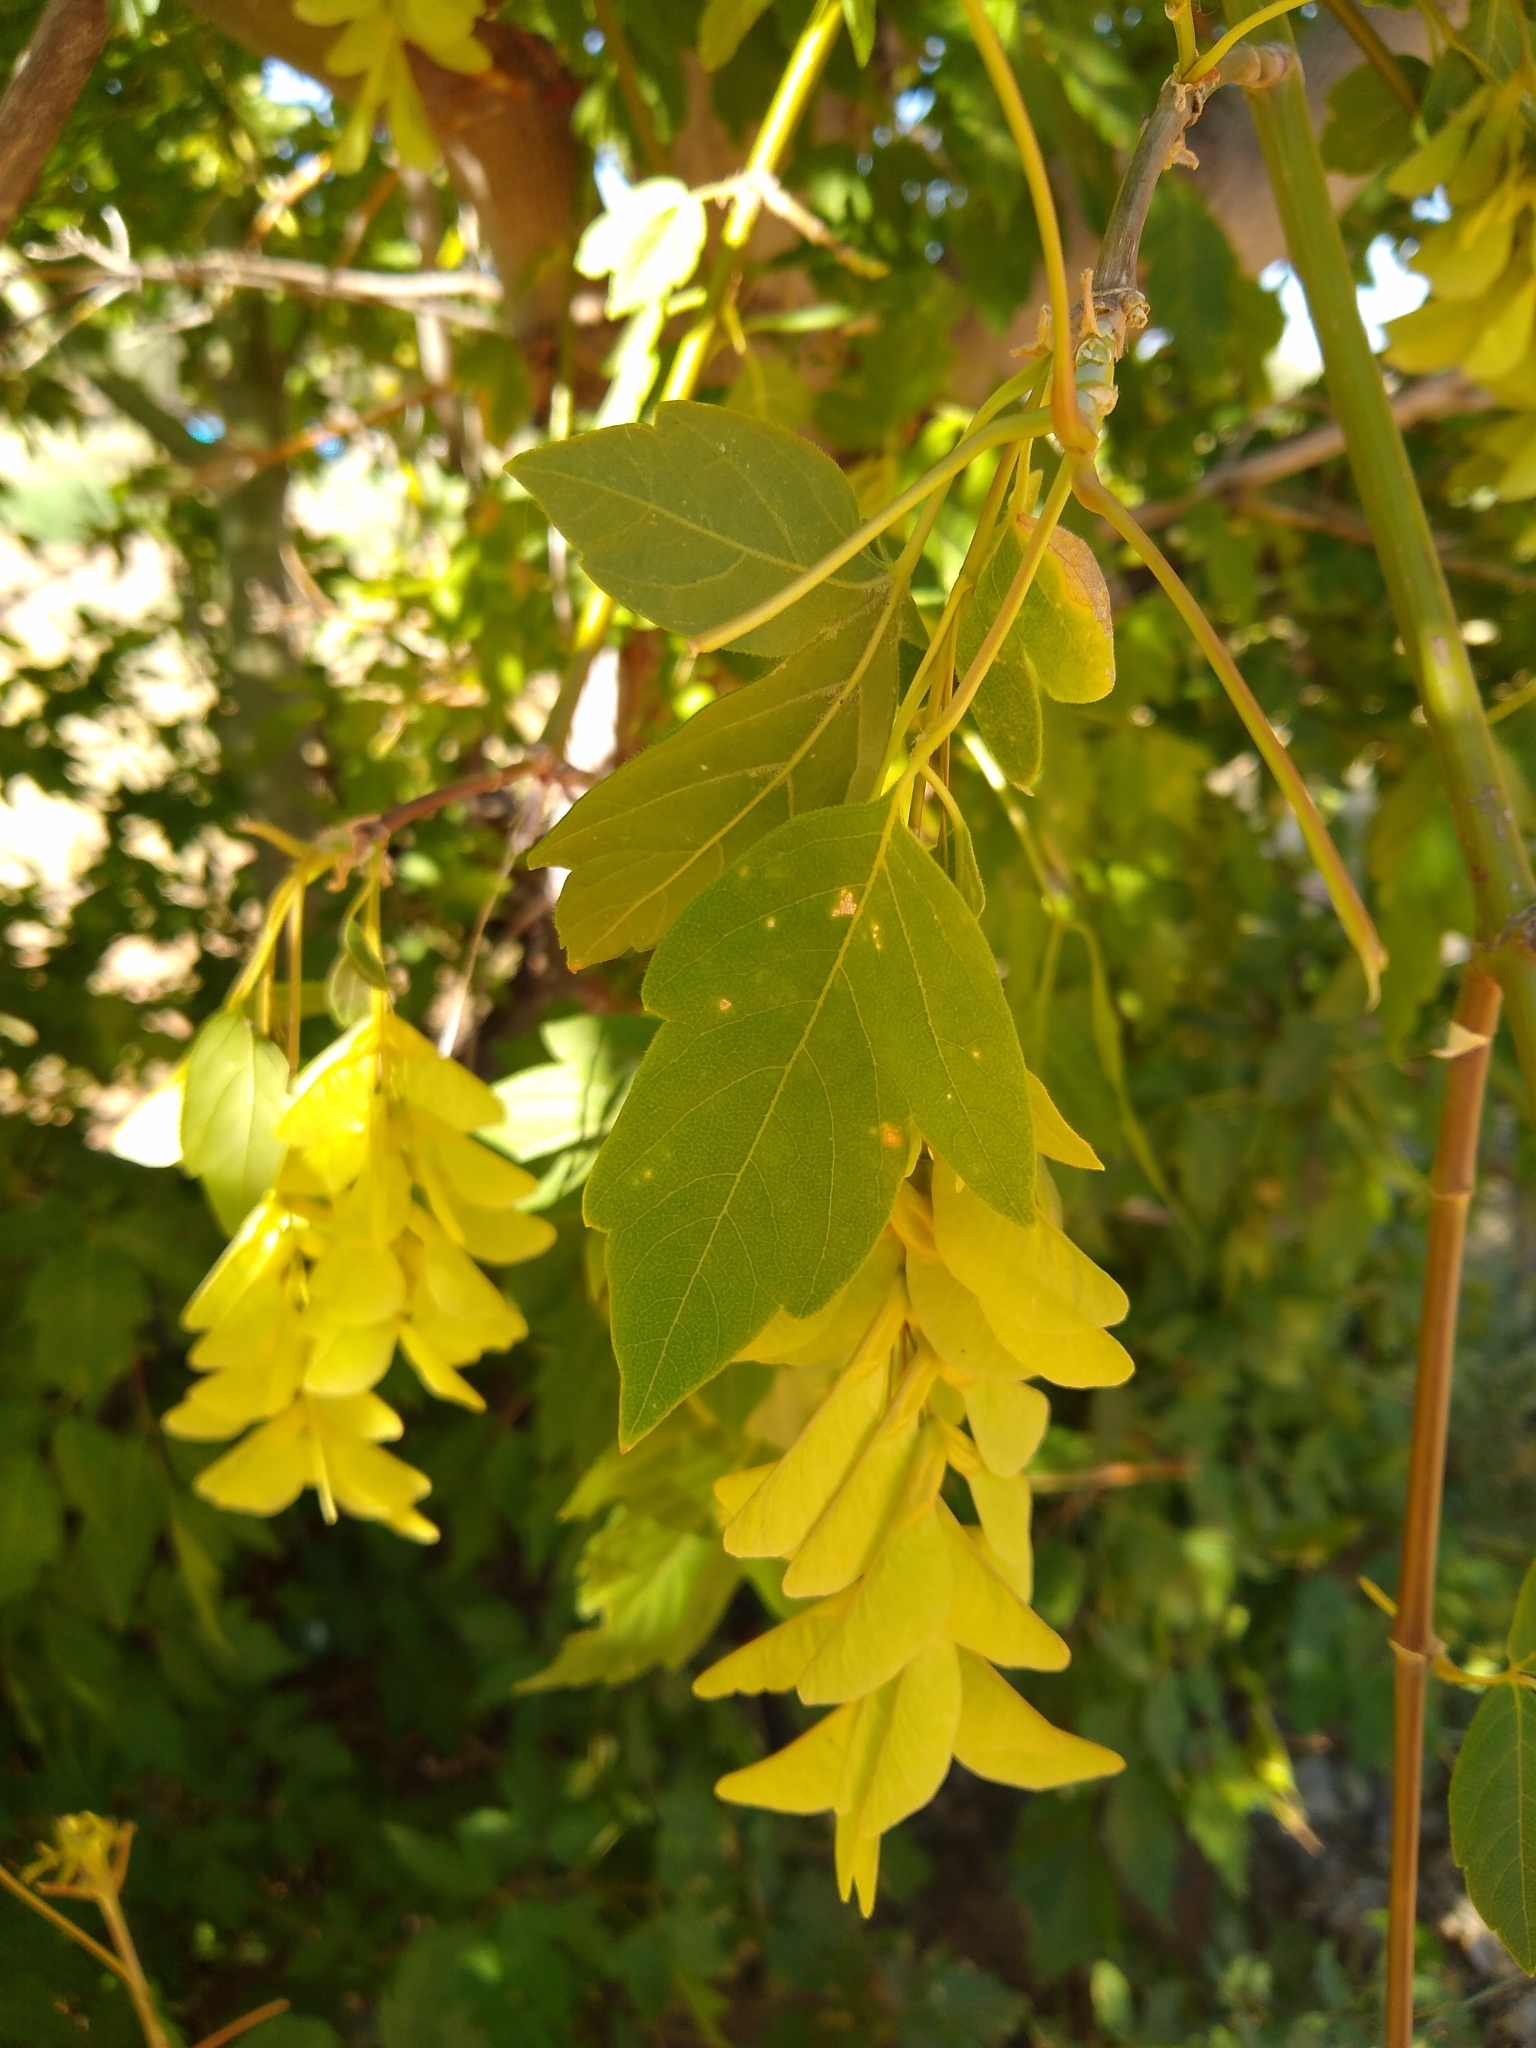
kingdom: Plantae
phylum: Tracheophyta
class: Magnoliopsida
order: Sapindales
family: Sapindaceae
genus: Acer
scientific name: Acer negundo
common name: Ashleaf maple
